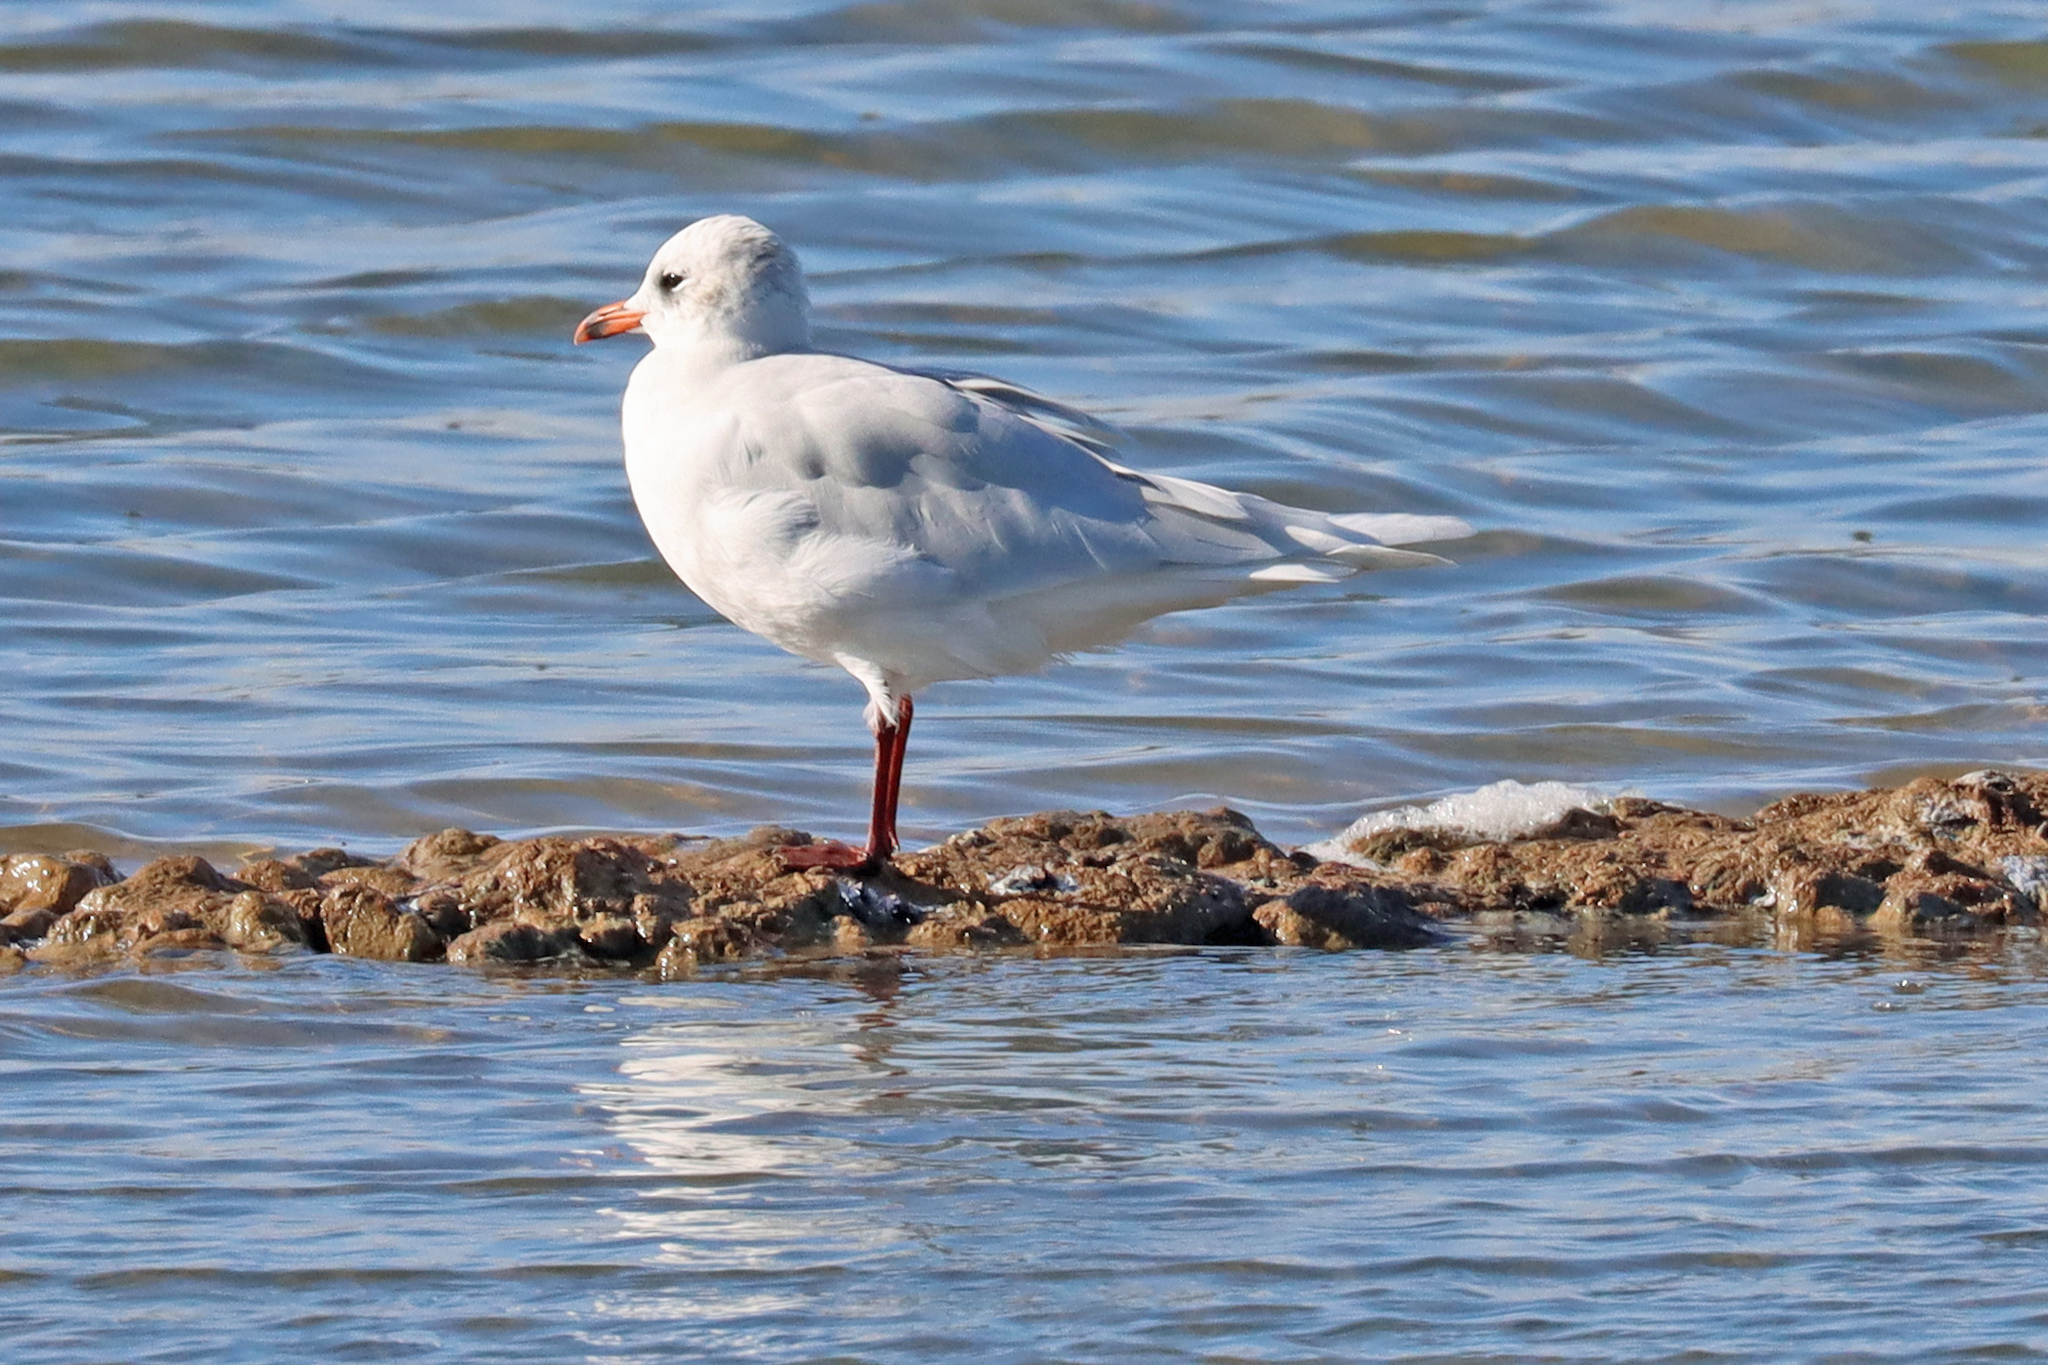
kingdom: Animalia
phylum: Chordata
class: Aves
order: Charadriiformes
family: Laridae
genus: Ichthyaetus
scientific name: Ichthyaetus melanocephalus
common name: Mediterranean gull
